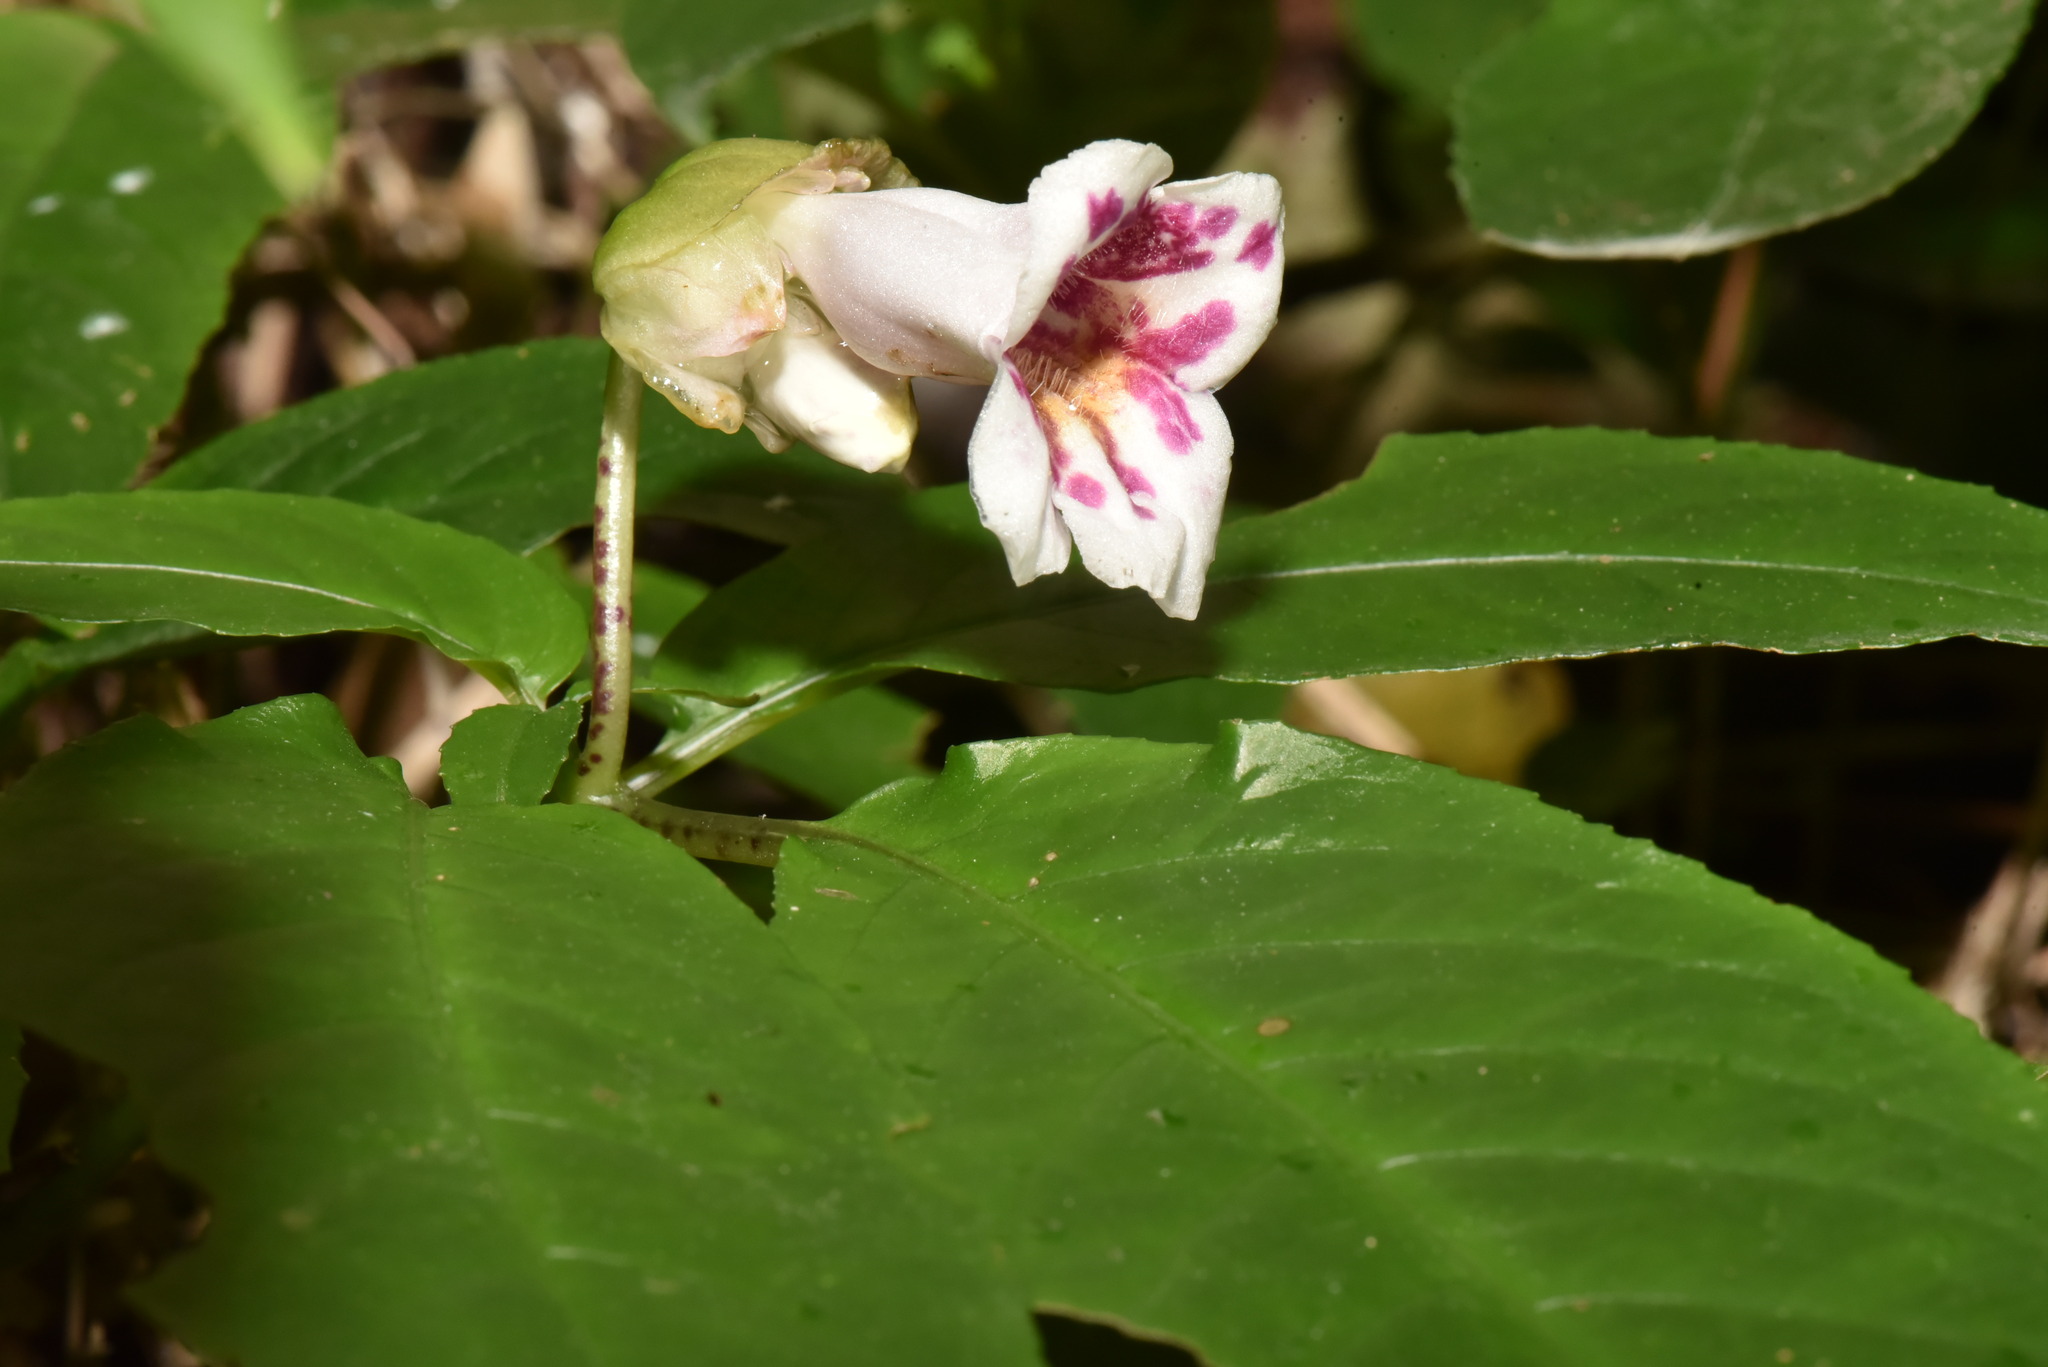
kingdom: Plantae
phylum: Tracheophyta
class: Magnoliopsida
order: Lamiales
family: Gesneriaceae
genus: Hemiboea
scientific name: Hemiboea bicornuta
